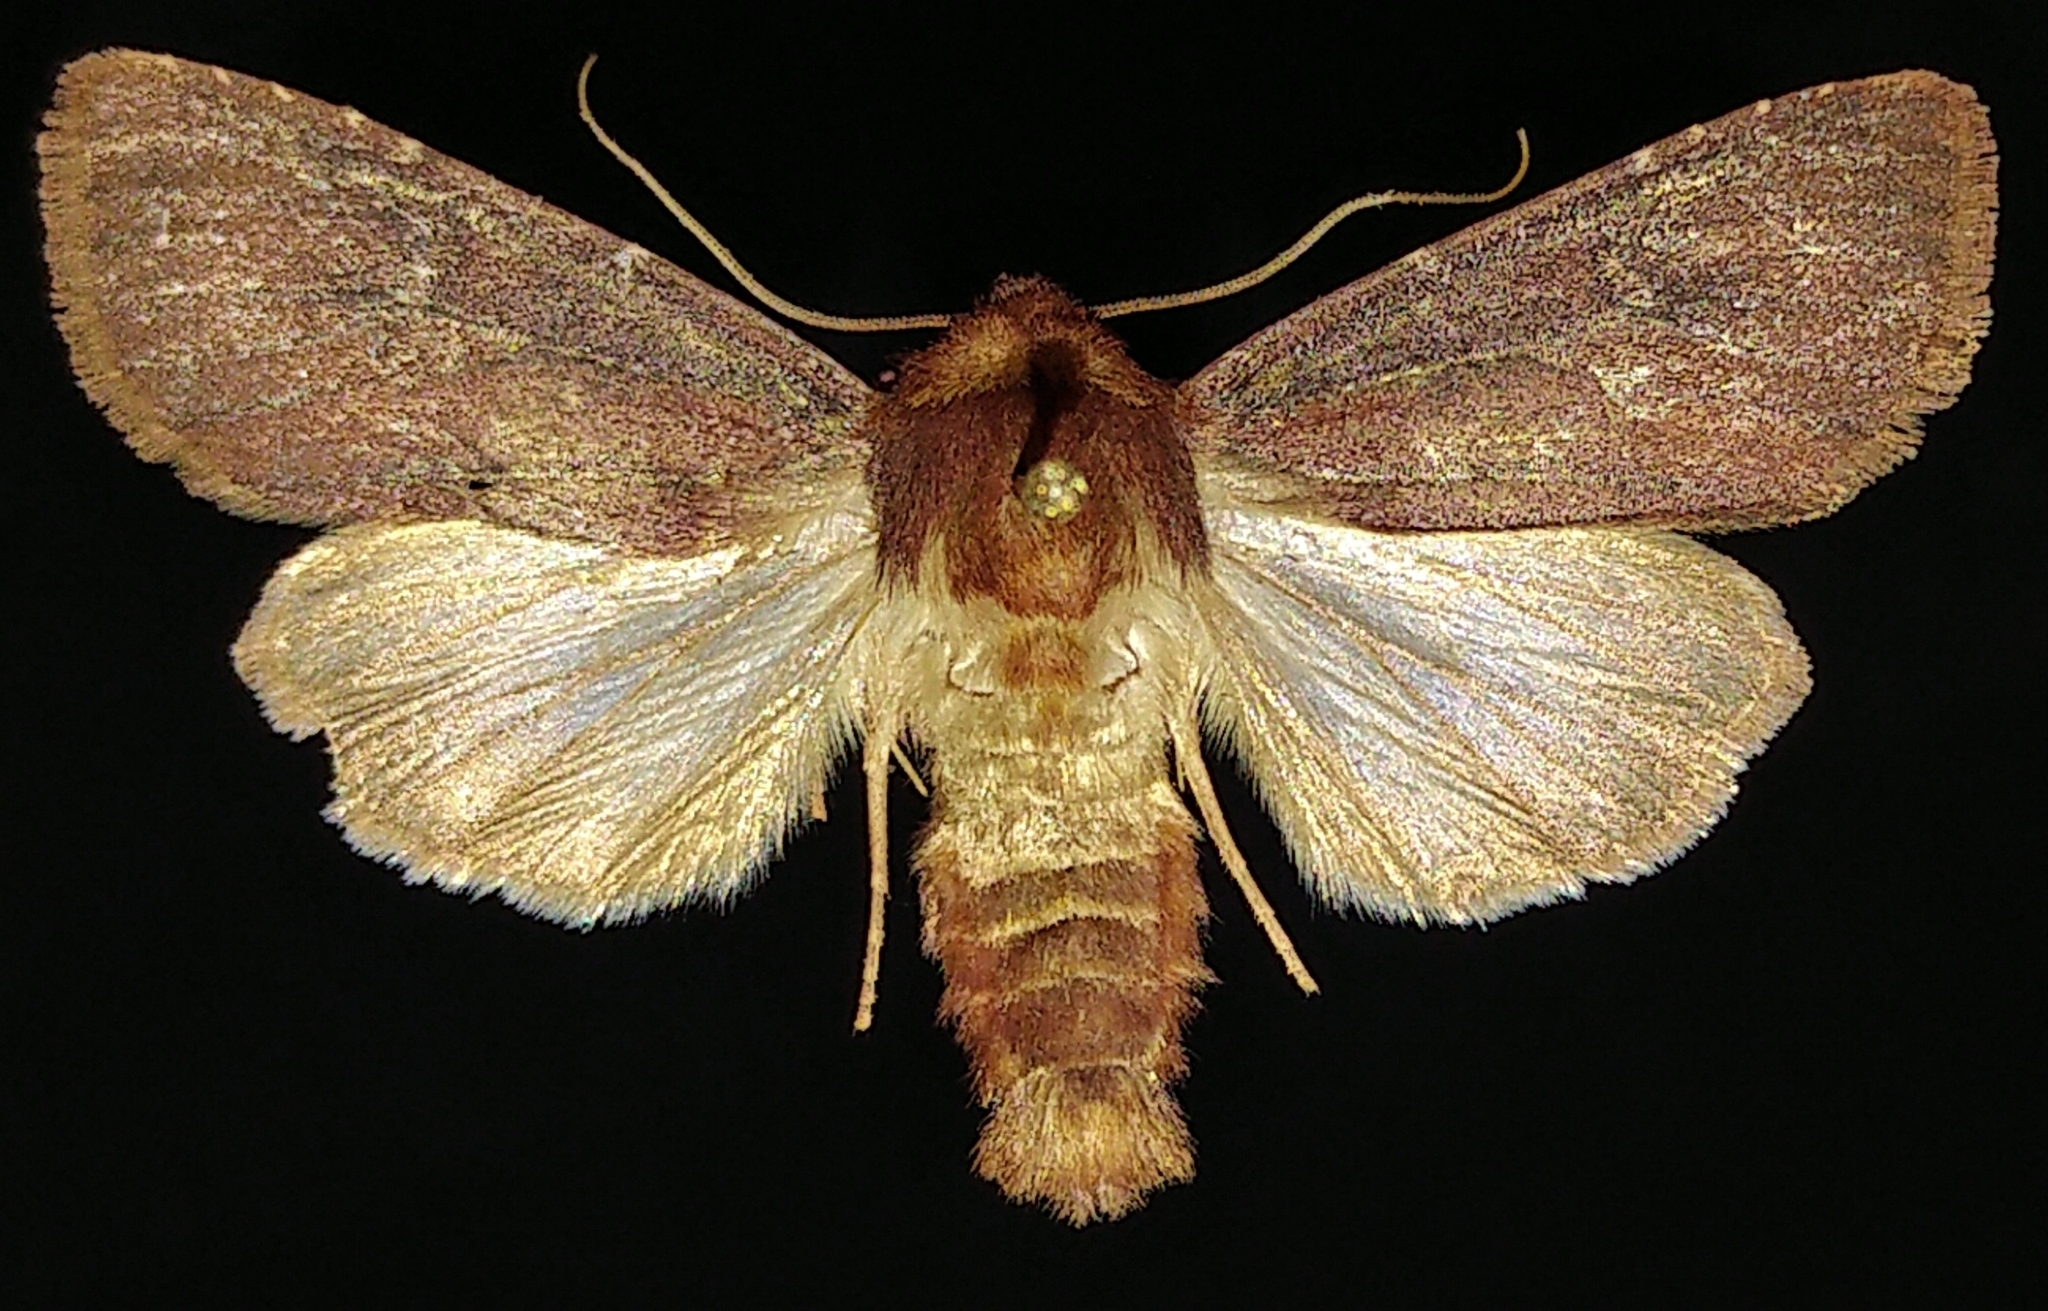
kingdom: Animalia
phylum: Arthropoda
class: Insecta
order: Lepidoptera
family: Noctuidae
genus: Sideridis
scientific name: Sideridis maryx
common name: Maroonwing moth
